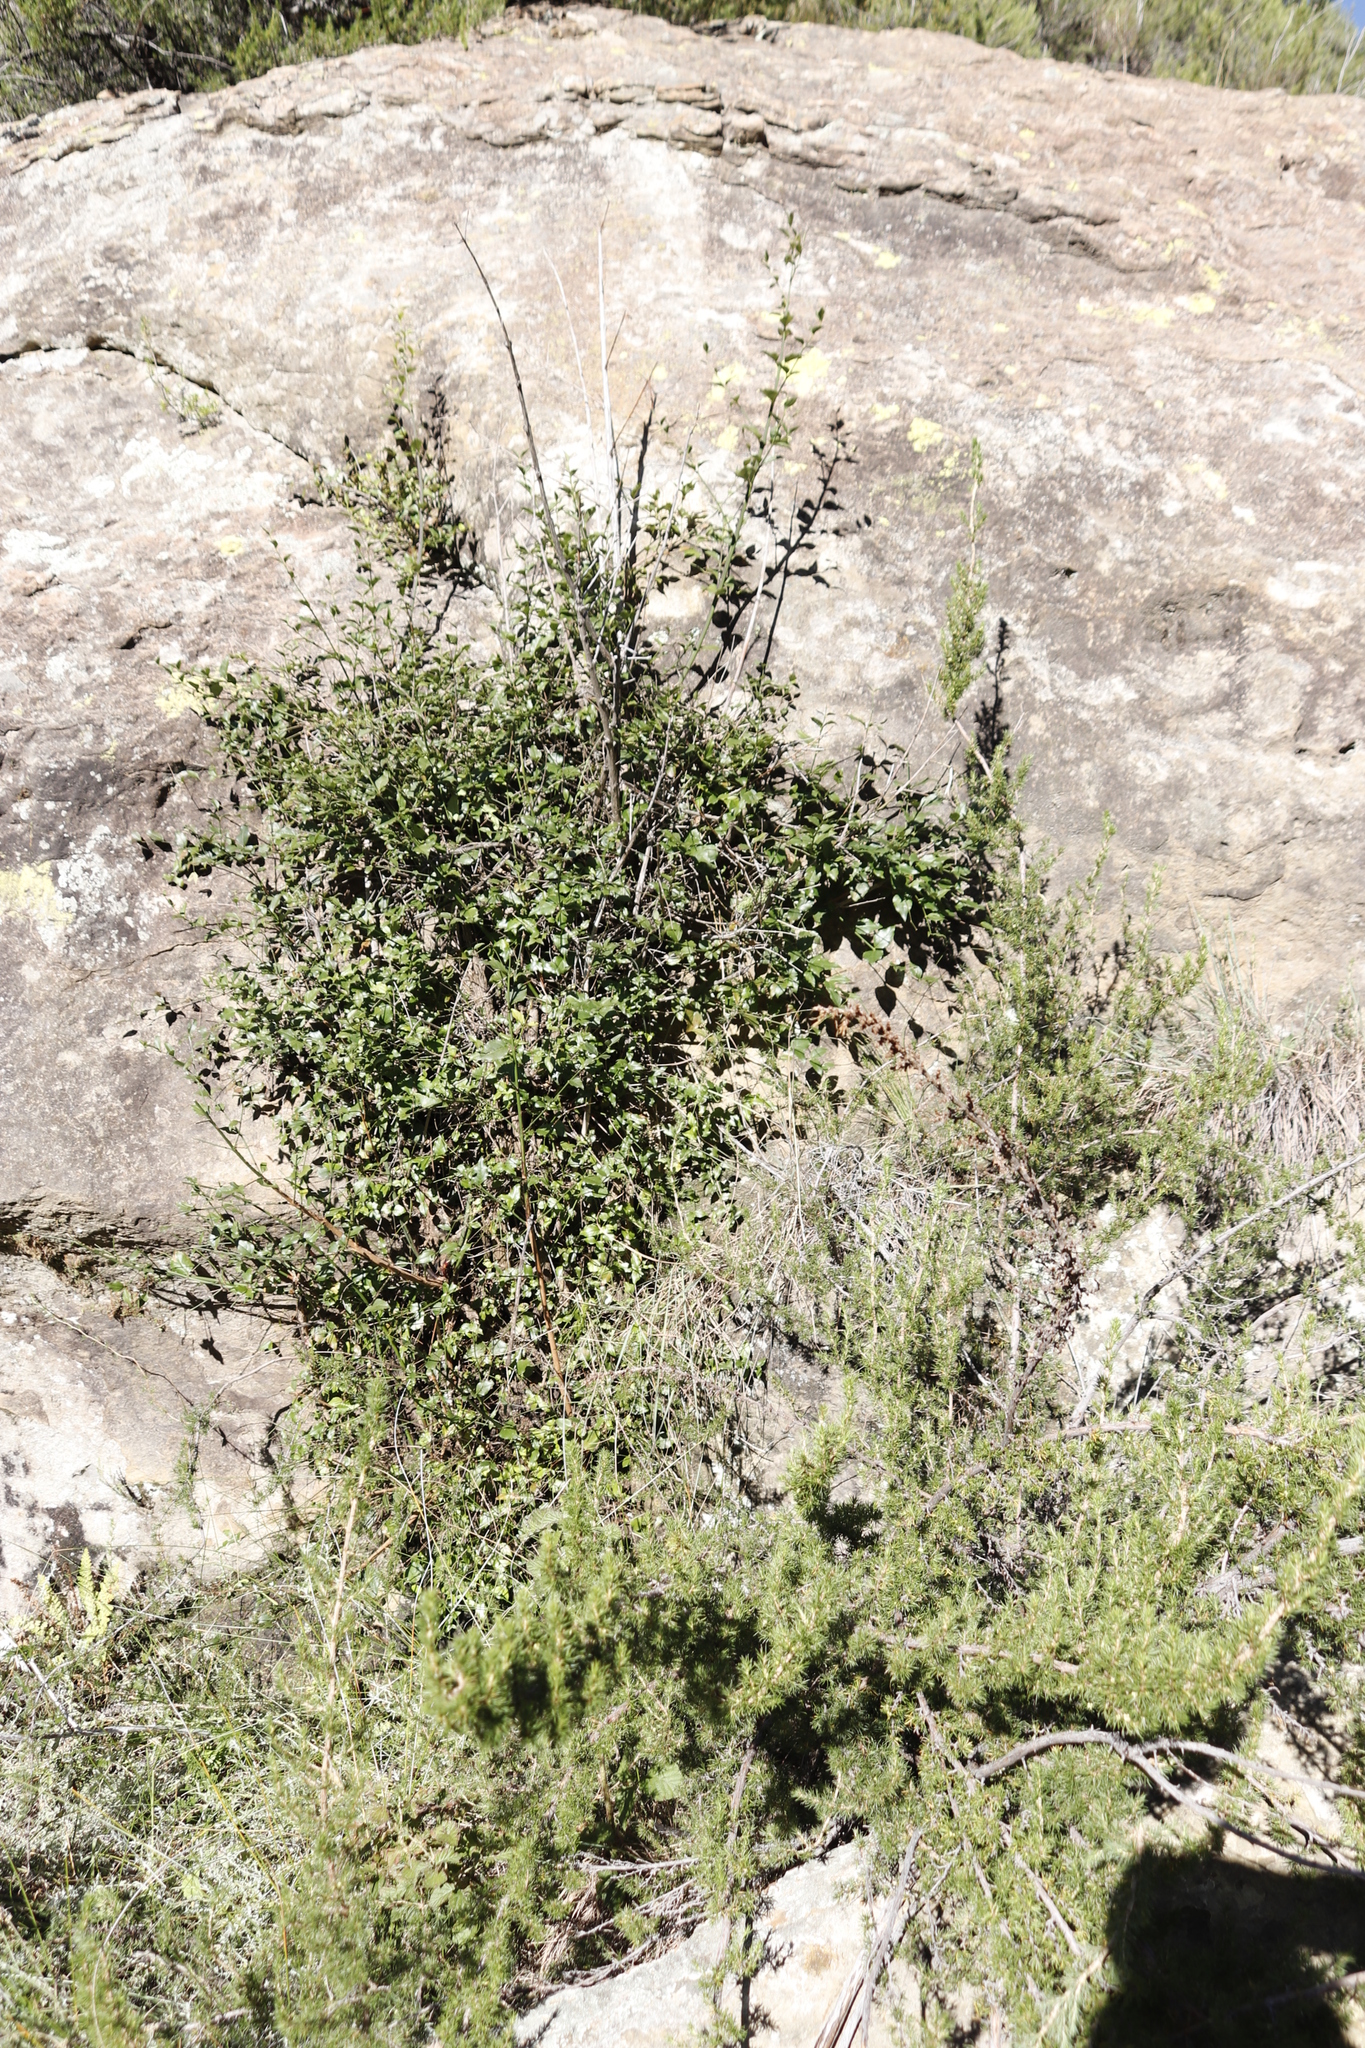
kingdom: Plantae
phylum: Tracheophyta
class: Magnoliopsida
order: Lamiales
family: Stilbaceae
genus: Halleria
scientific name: Halleria lucida
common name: Tree fuschia
